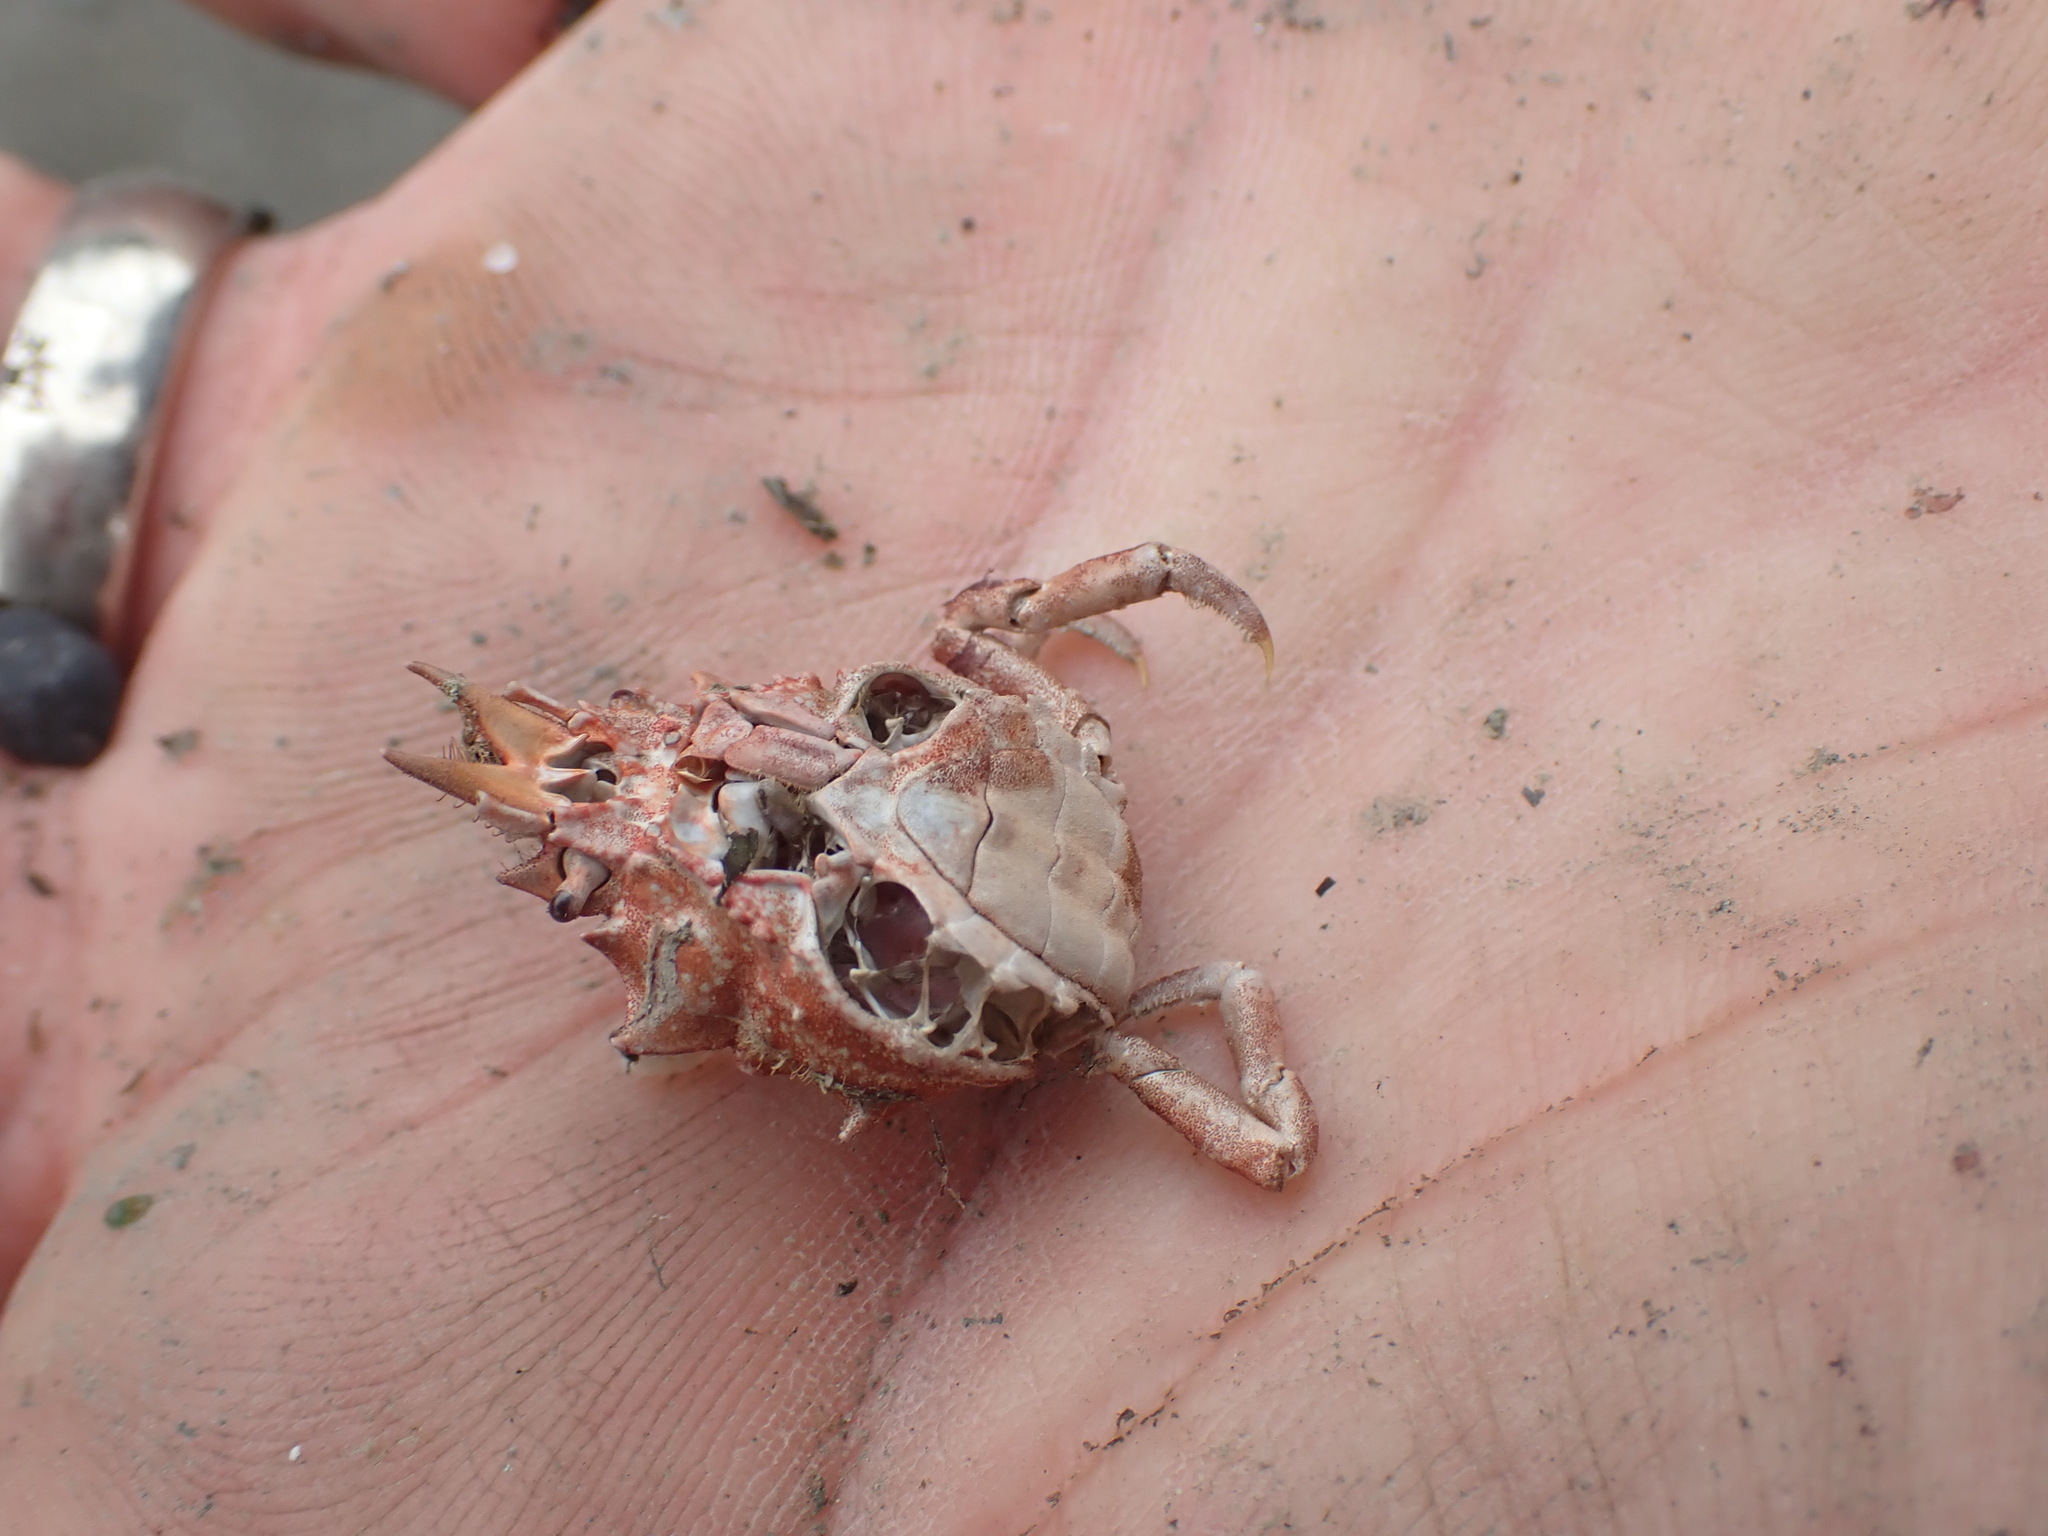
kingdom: Animalia
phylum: Arthropoda
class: Malacostraca
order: Decapoda
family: Epialtidae
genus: Pugettia
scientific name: Pugettia gracilis
